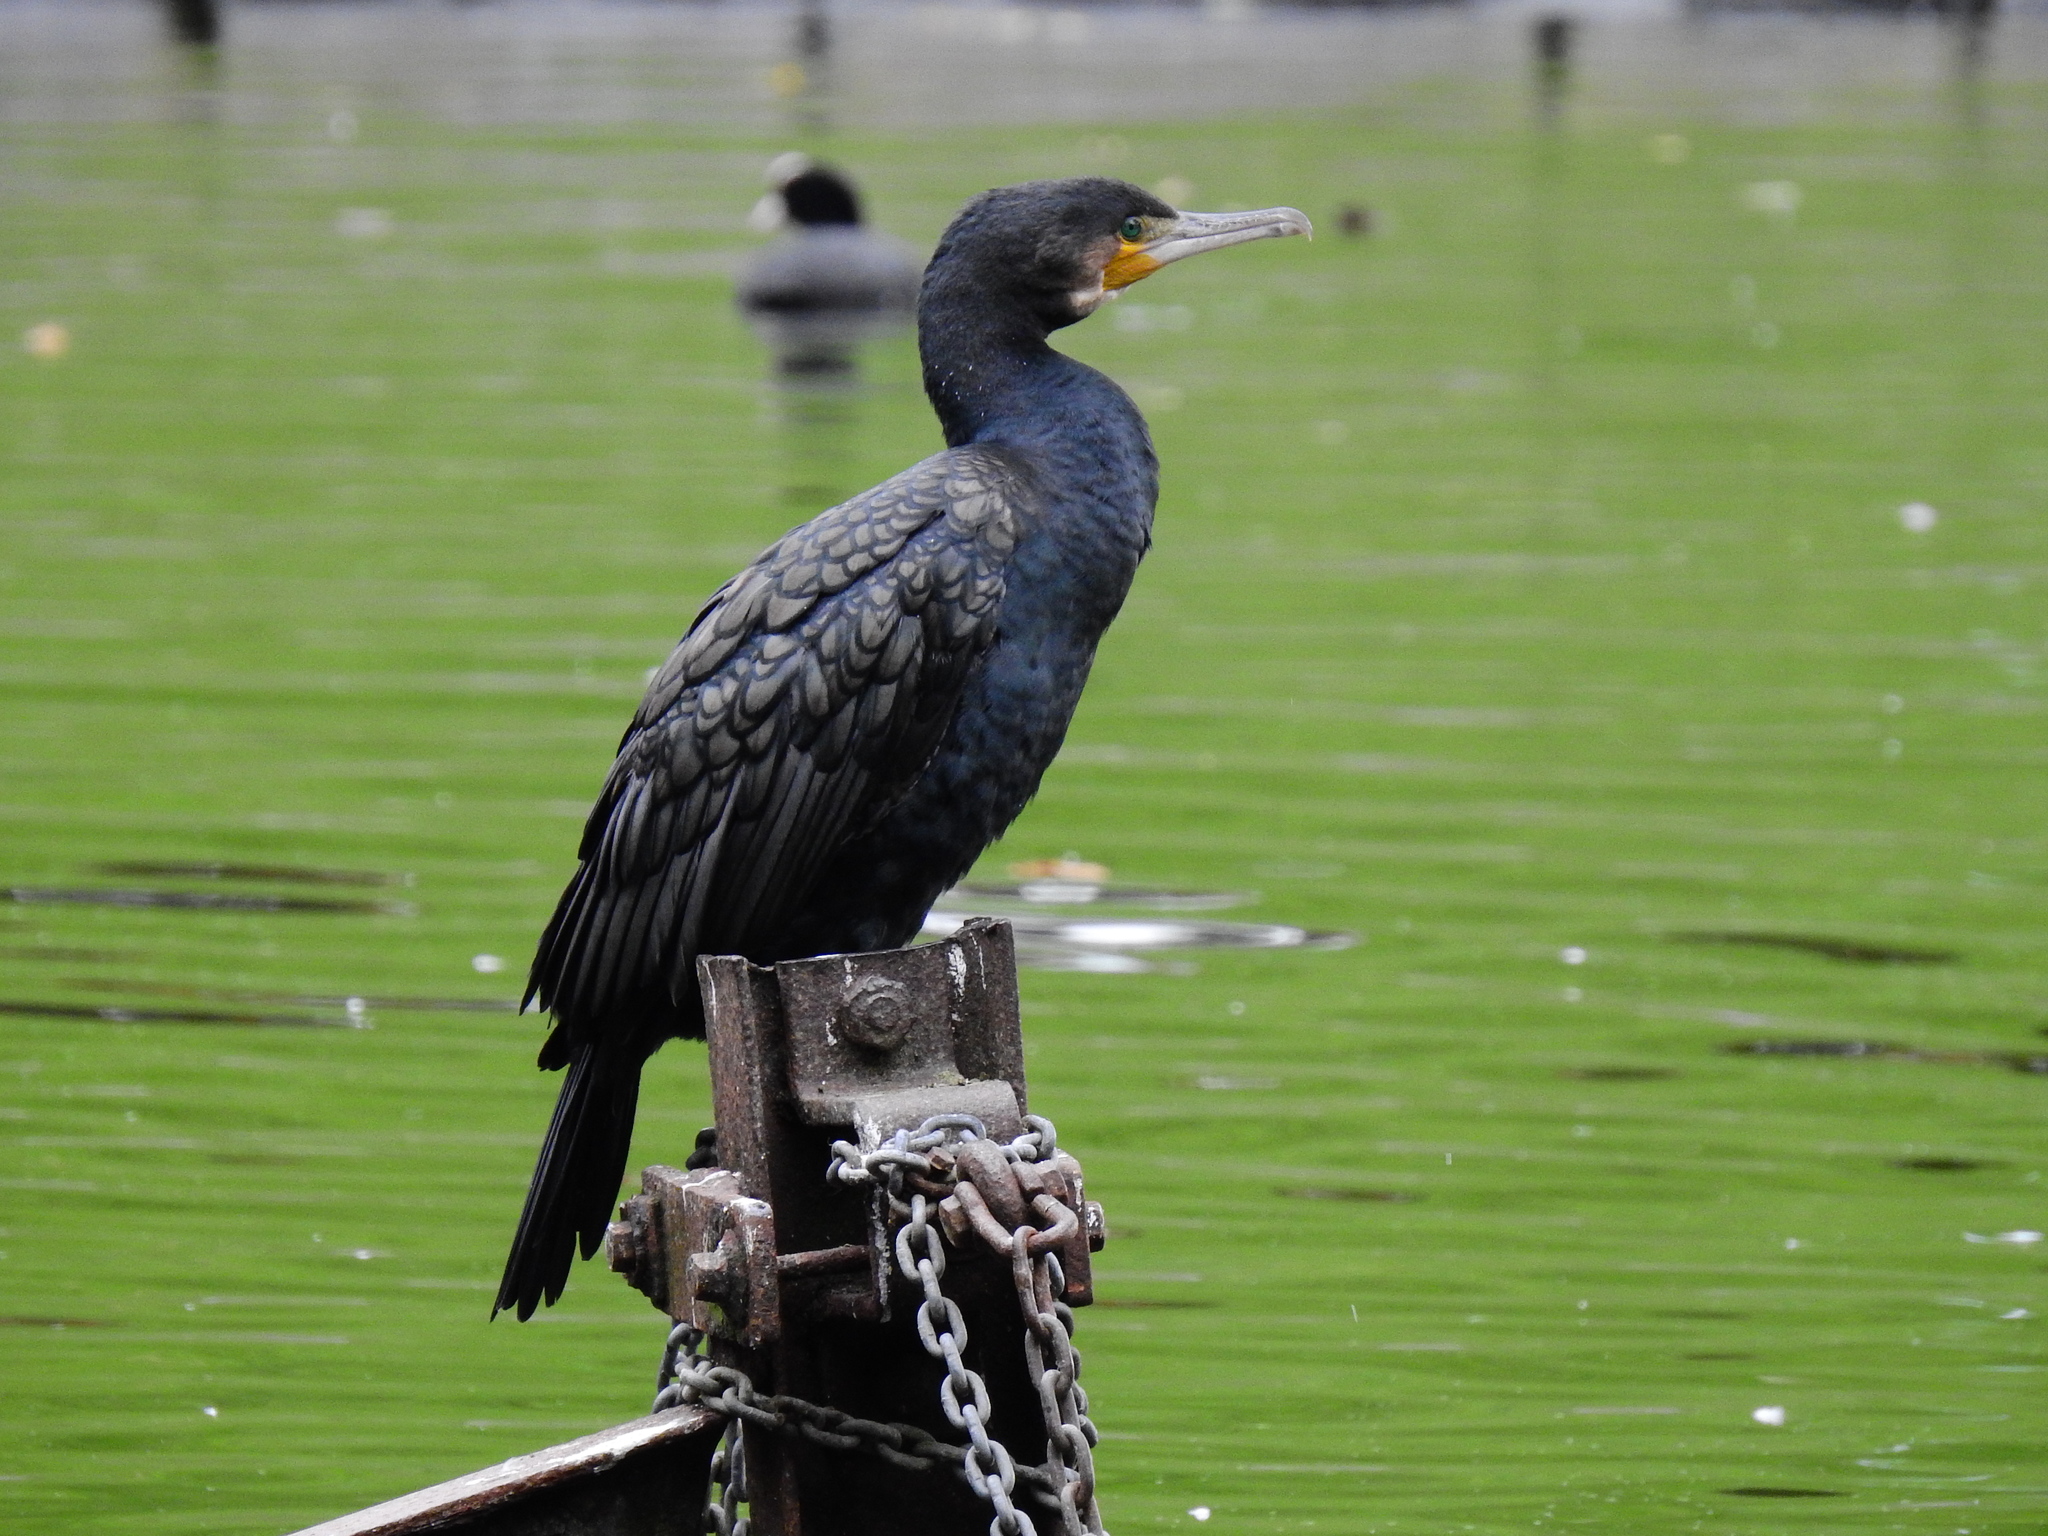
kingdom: Animalia
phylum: Chordata
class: Aves
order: Suliformes
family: Phalacrocoracidae
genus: Phalacrocorax
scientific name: Phalacrocorax carbo
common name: Great cormorant
